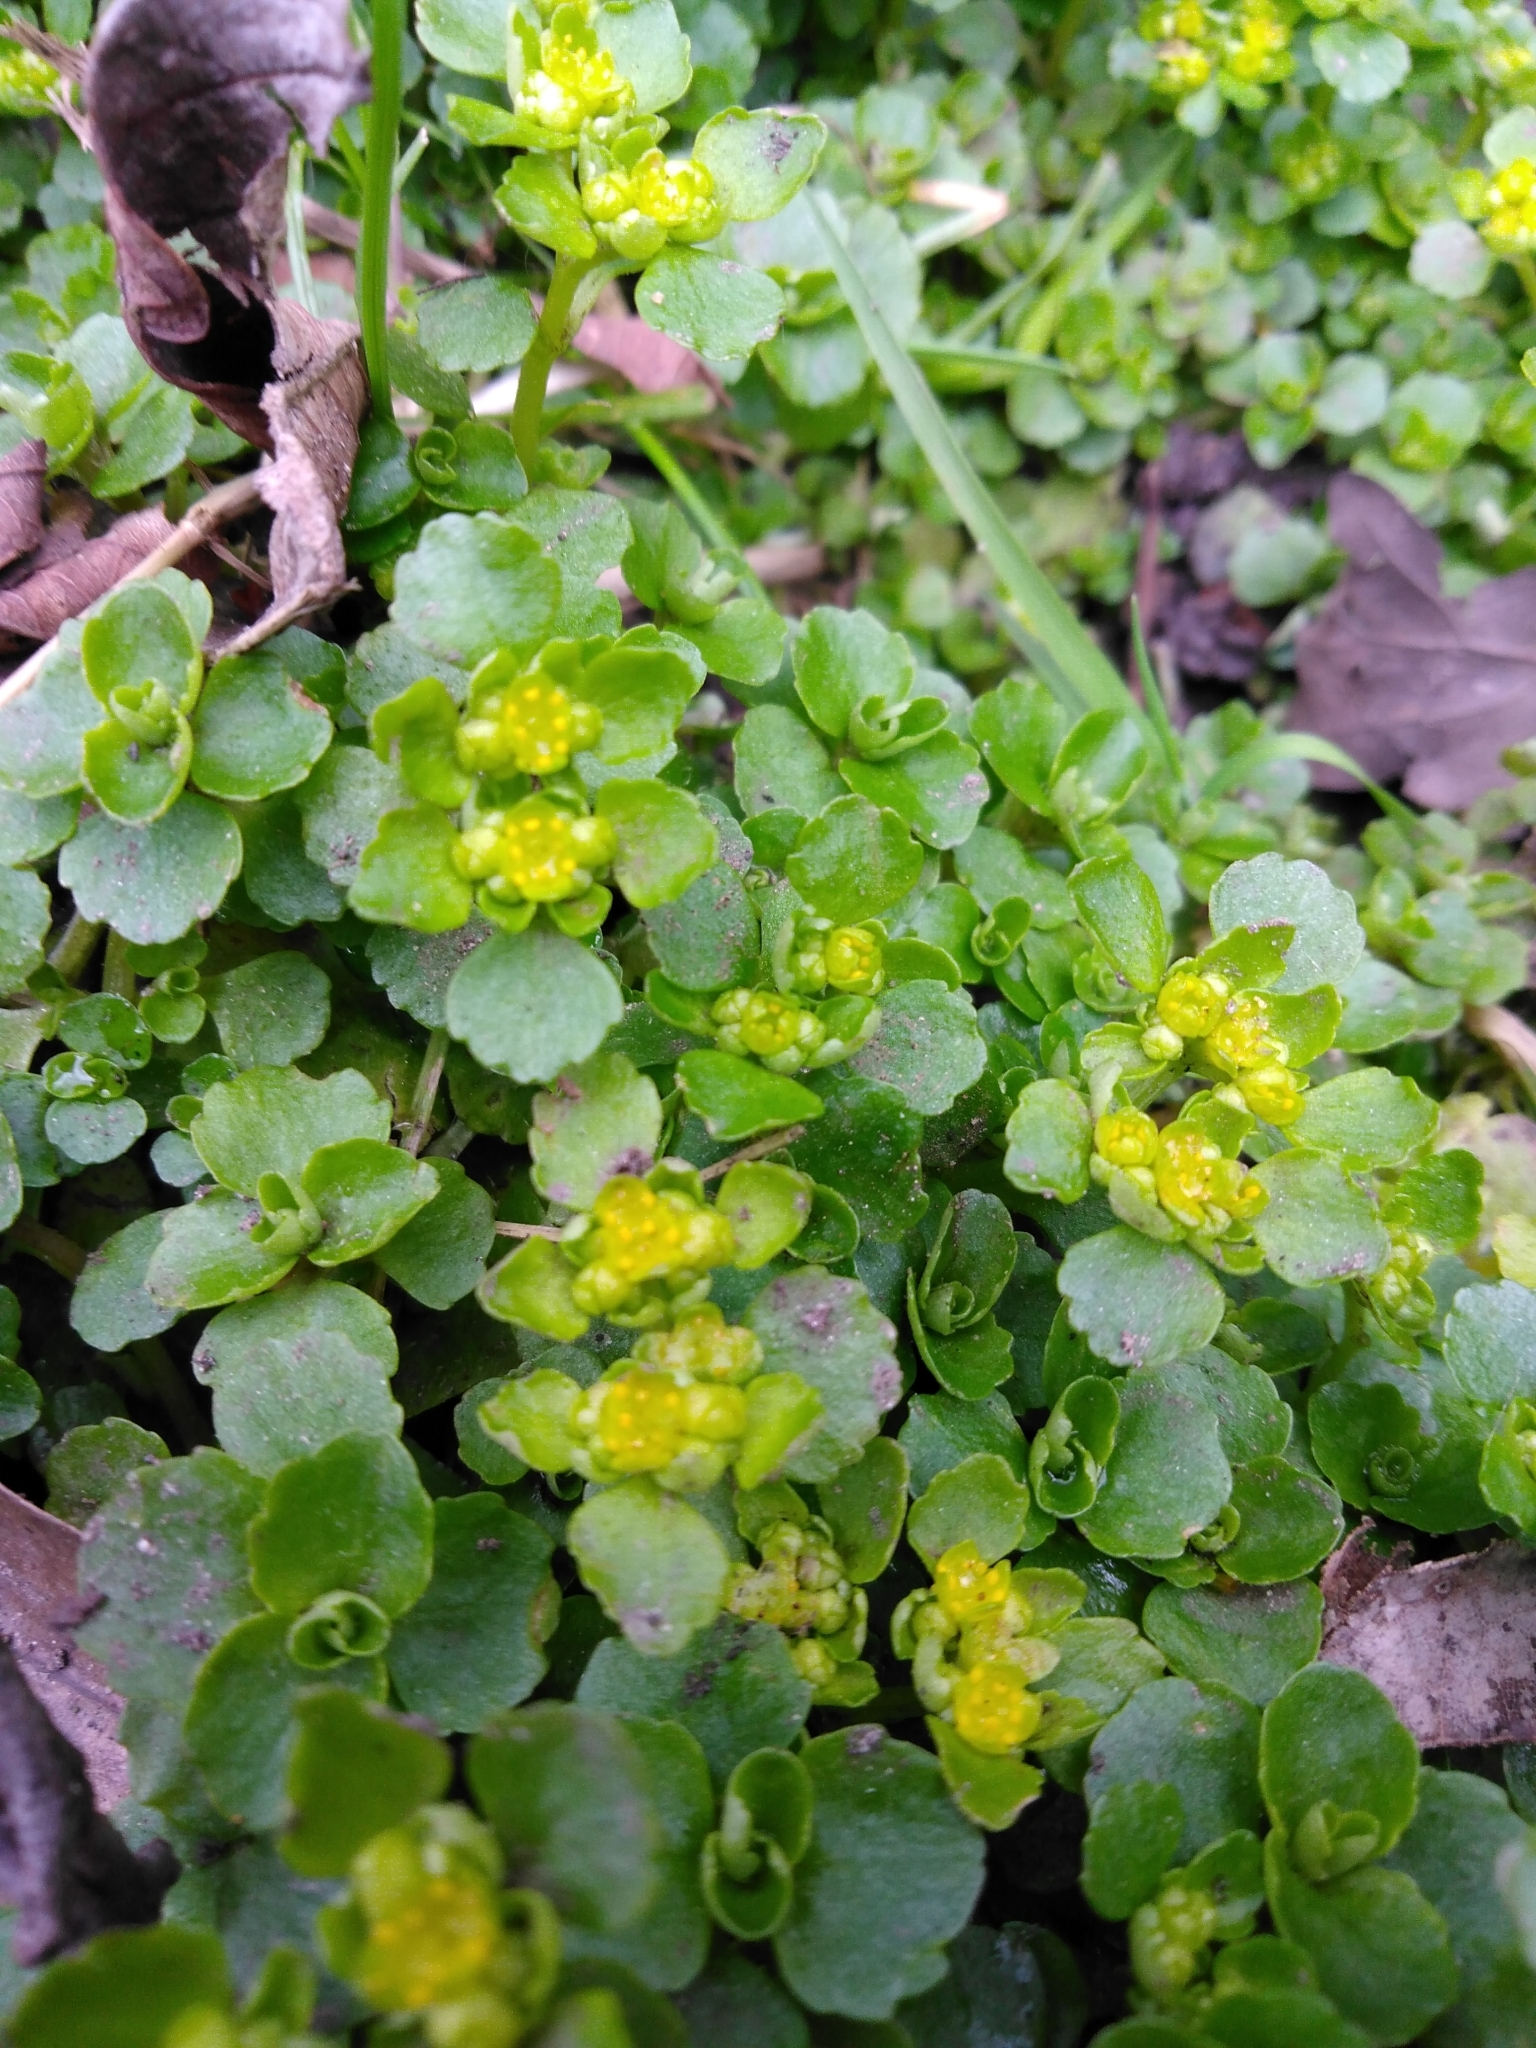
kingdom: Plantae
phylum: Tracheophyta
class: Magnoliopsida
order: Saxifragales
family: Saxifragaceae
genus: Chrysosplenium
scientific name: Chrysosplenium oppositifolium
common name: Opposite-leaved golden-saxifrage
